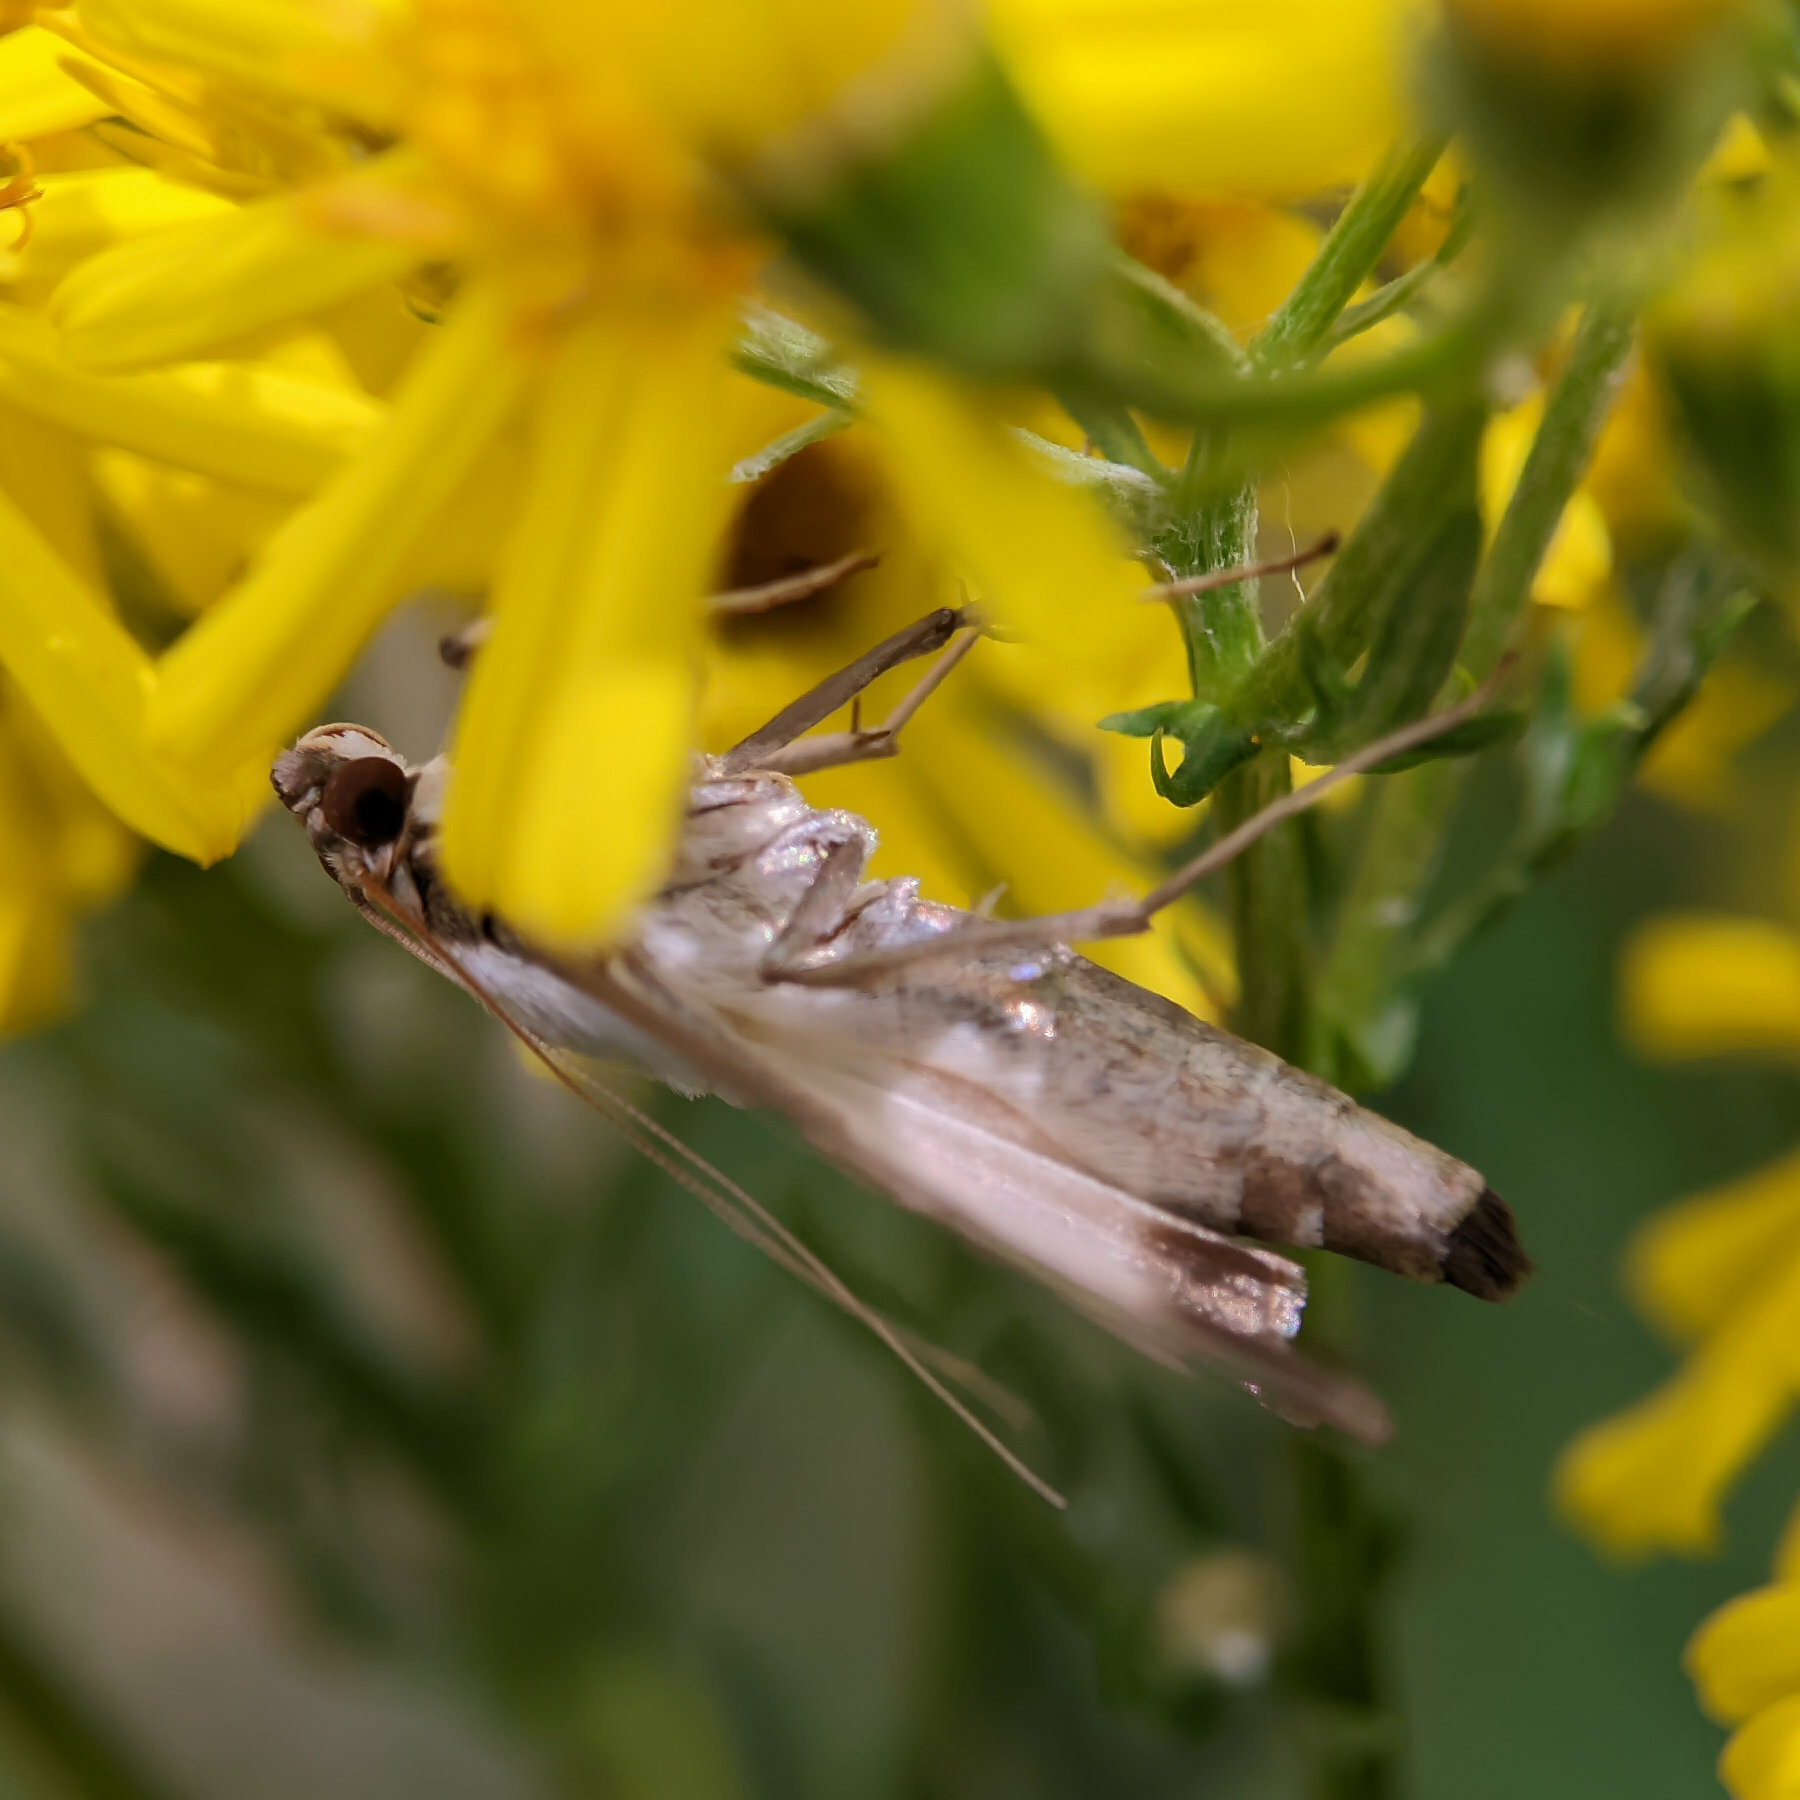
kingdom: Animalia
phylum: Arthropoda
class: Insecta
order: Lepidoptera
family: Crambidae
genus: Cydalima
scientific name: Cydalima perspectalis
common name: Box tree moth
